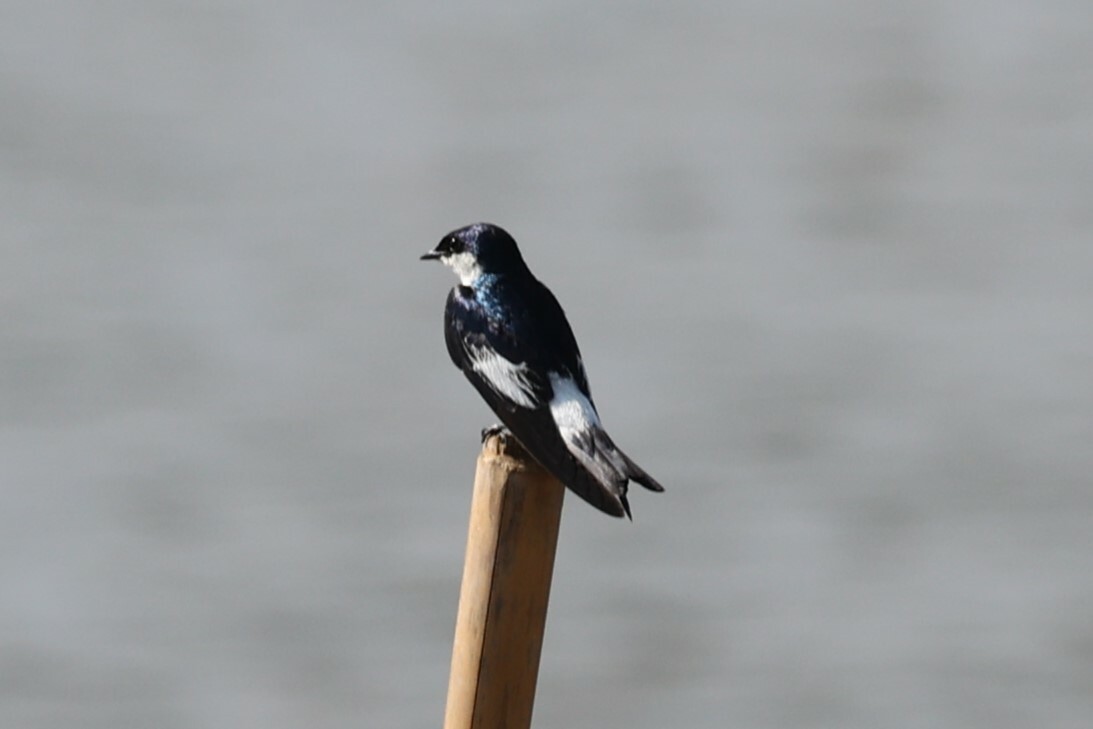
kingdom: Animalia
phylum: Chordata
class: Aves
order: Passeriformes
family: Hirundinidae
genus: Tachycineta
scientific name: Tachycineta albiventer
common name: White-winged swallow
